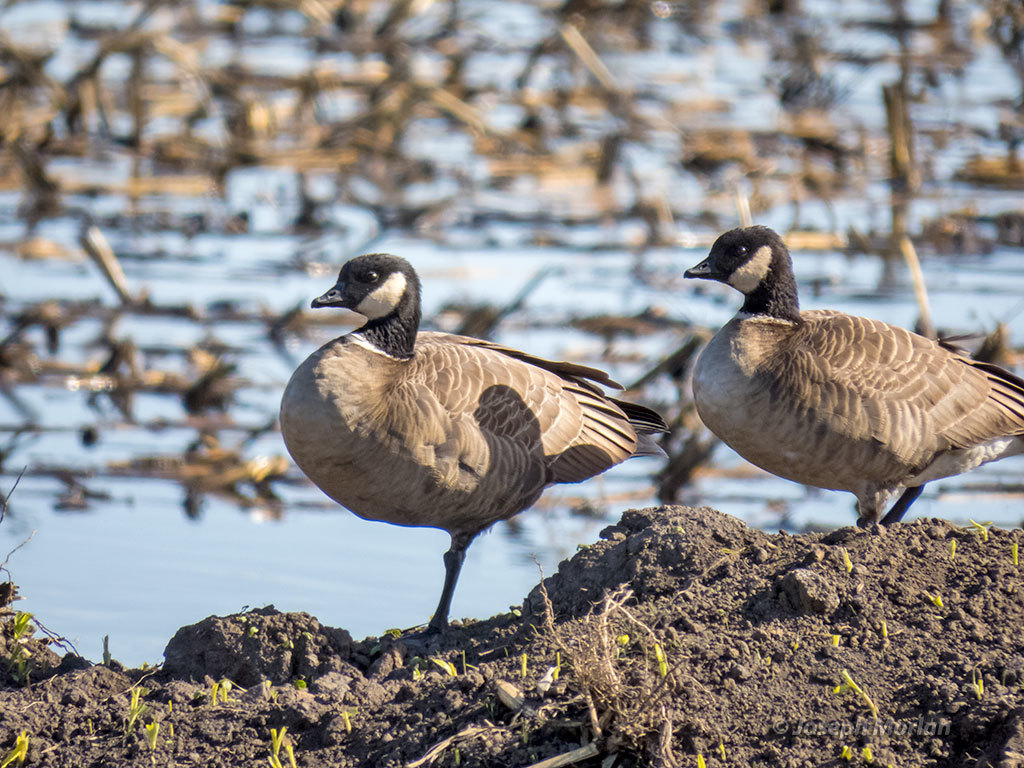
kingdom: Animalia
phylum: Chordata
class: Aves
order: Anseriformes
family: Anatidae
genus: Branta
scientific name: Branta hutchinsii
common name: Cackling goose
